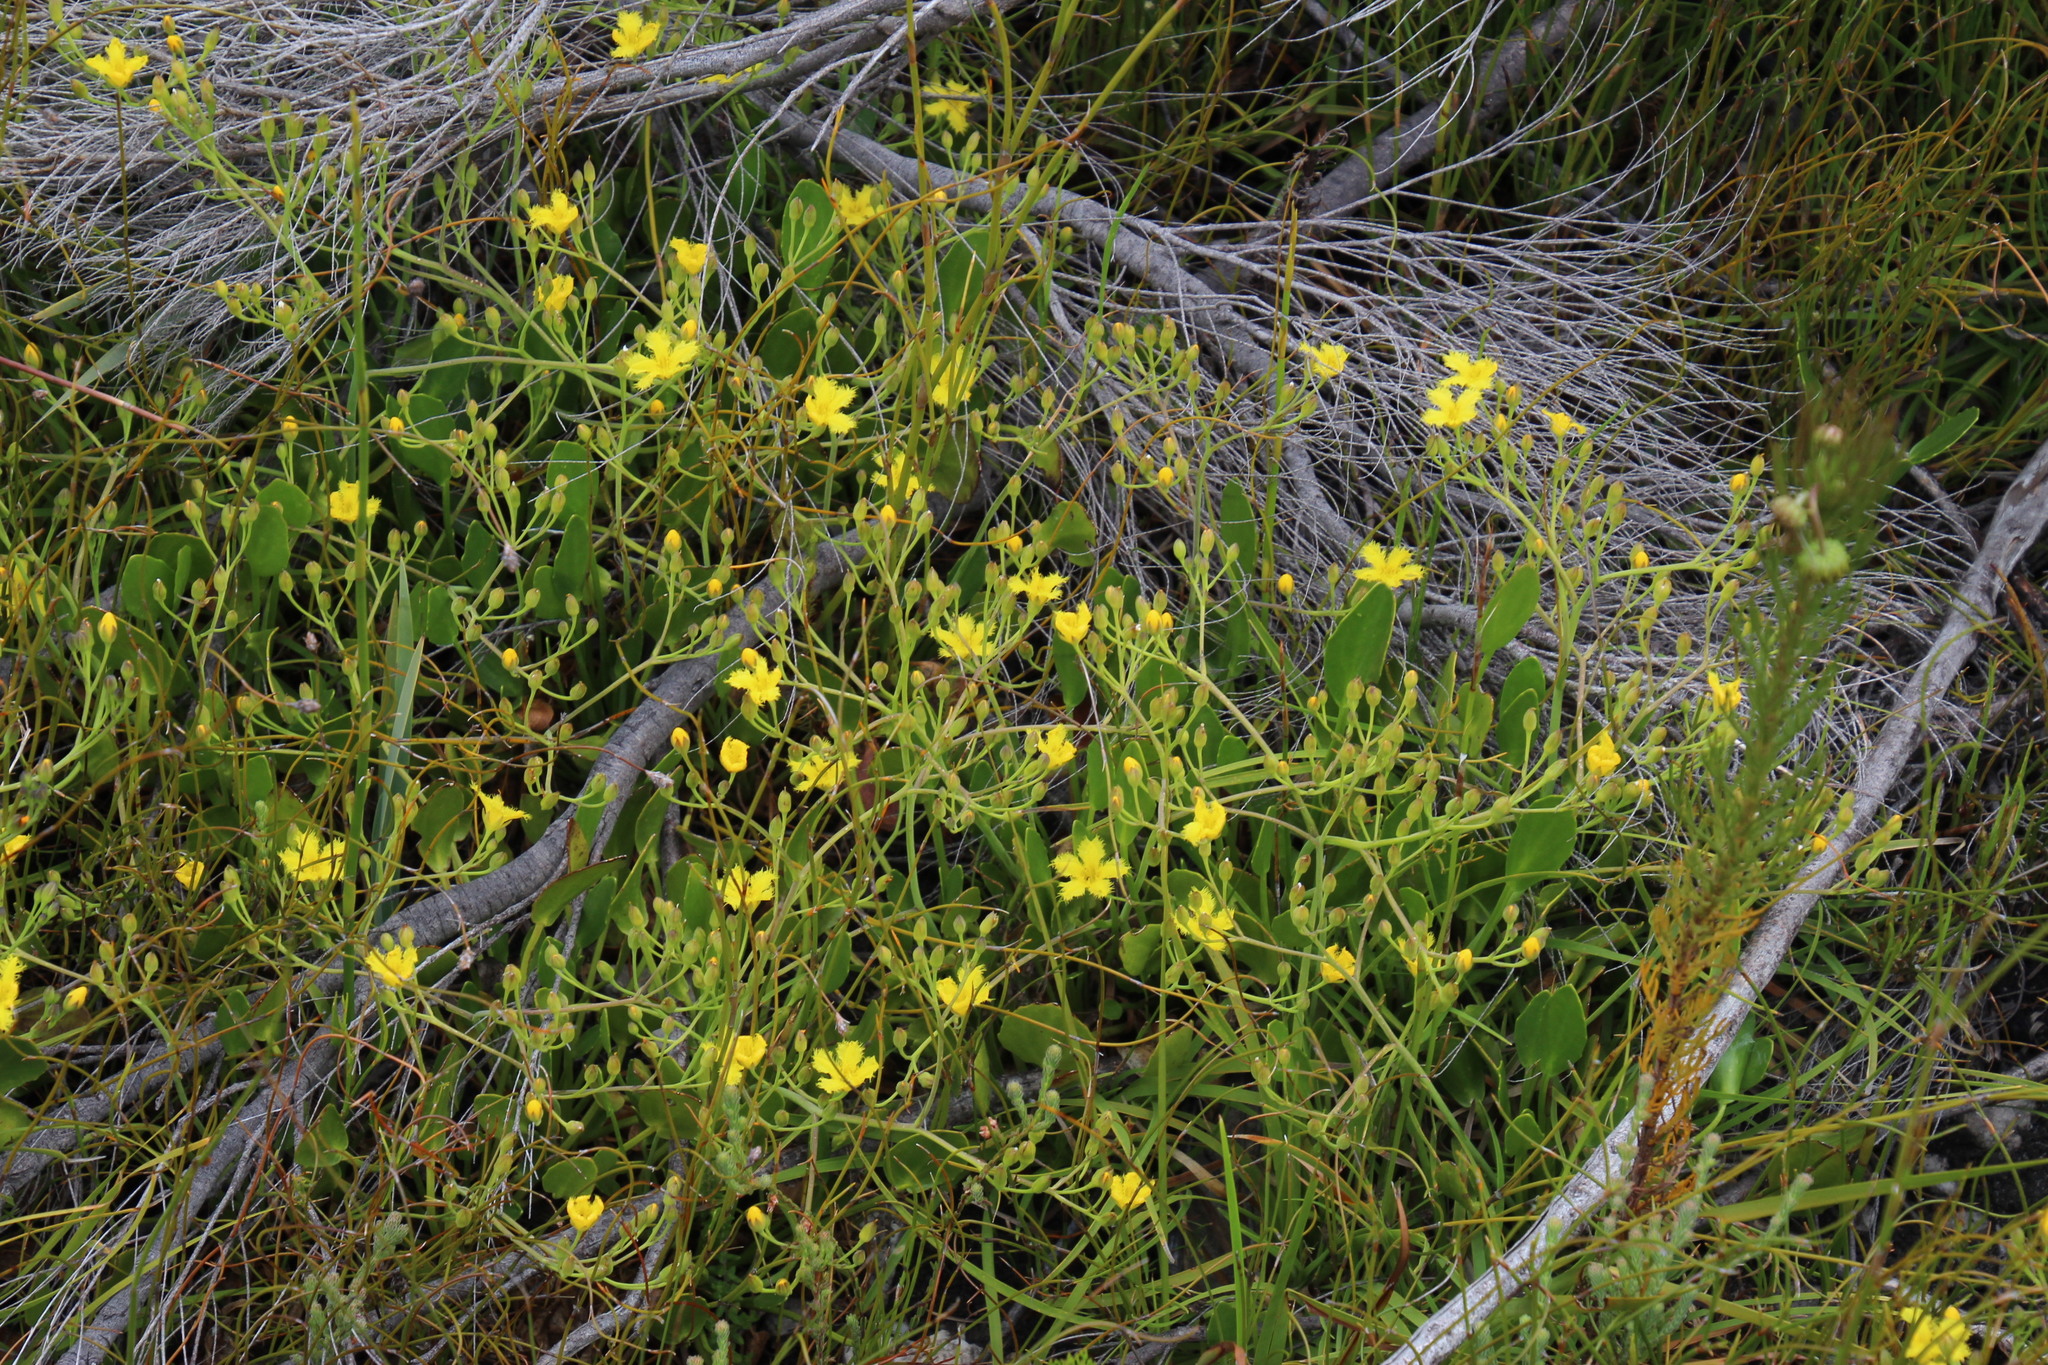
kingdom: Plantae
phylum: Tracheophyta
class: Magnoliopsida
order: Asterales
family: Menyanthaceae
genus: Villarsia
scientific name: Villarsia capensis
